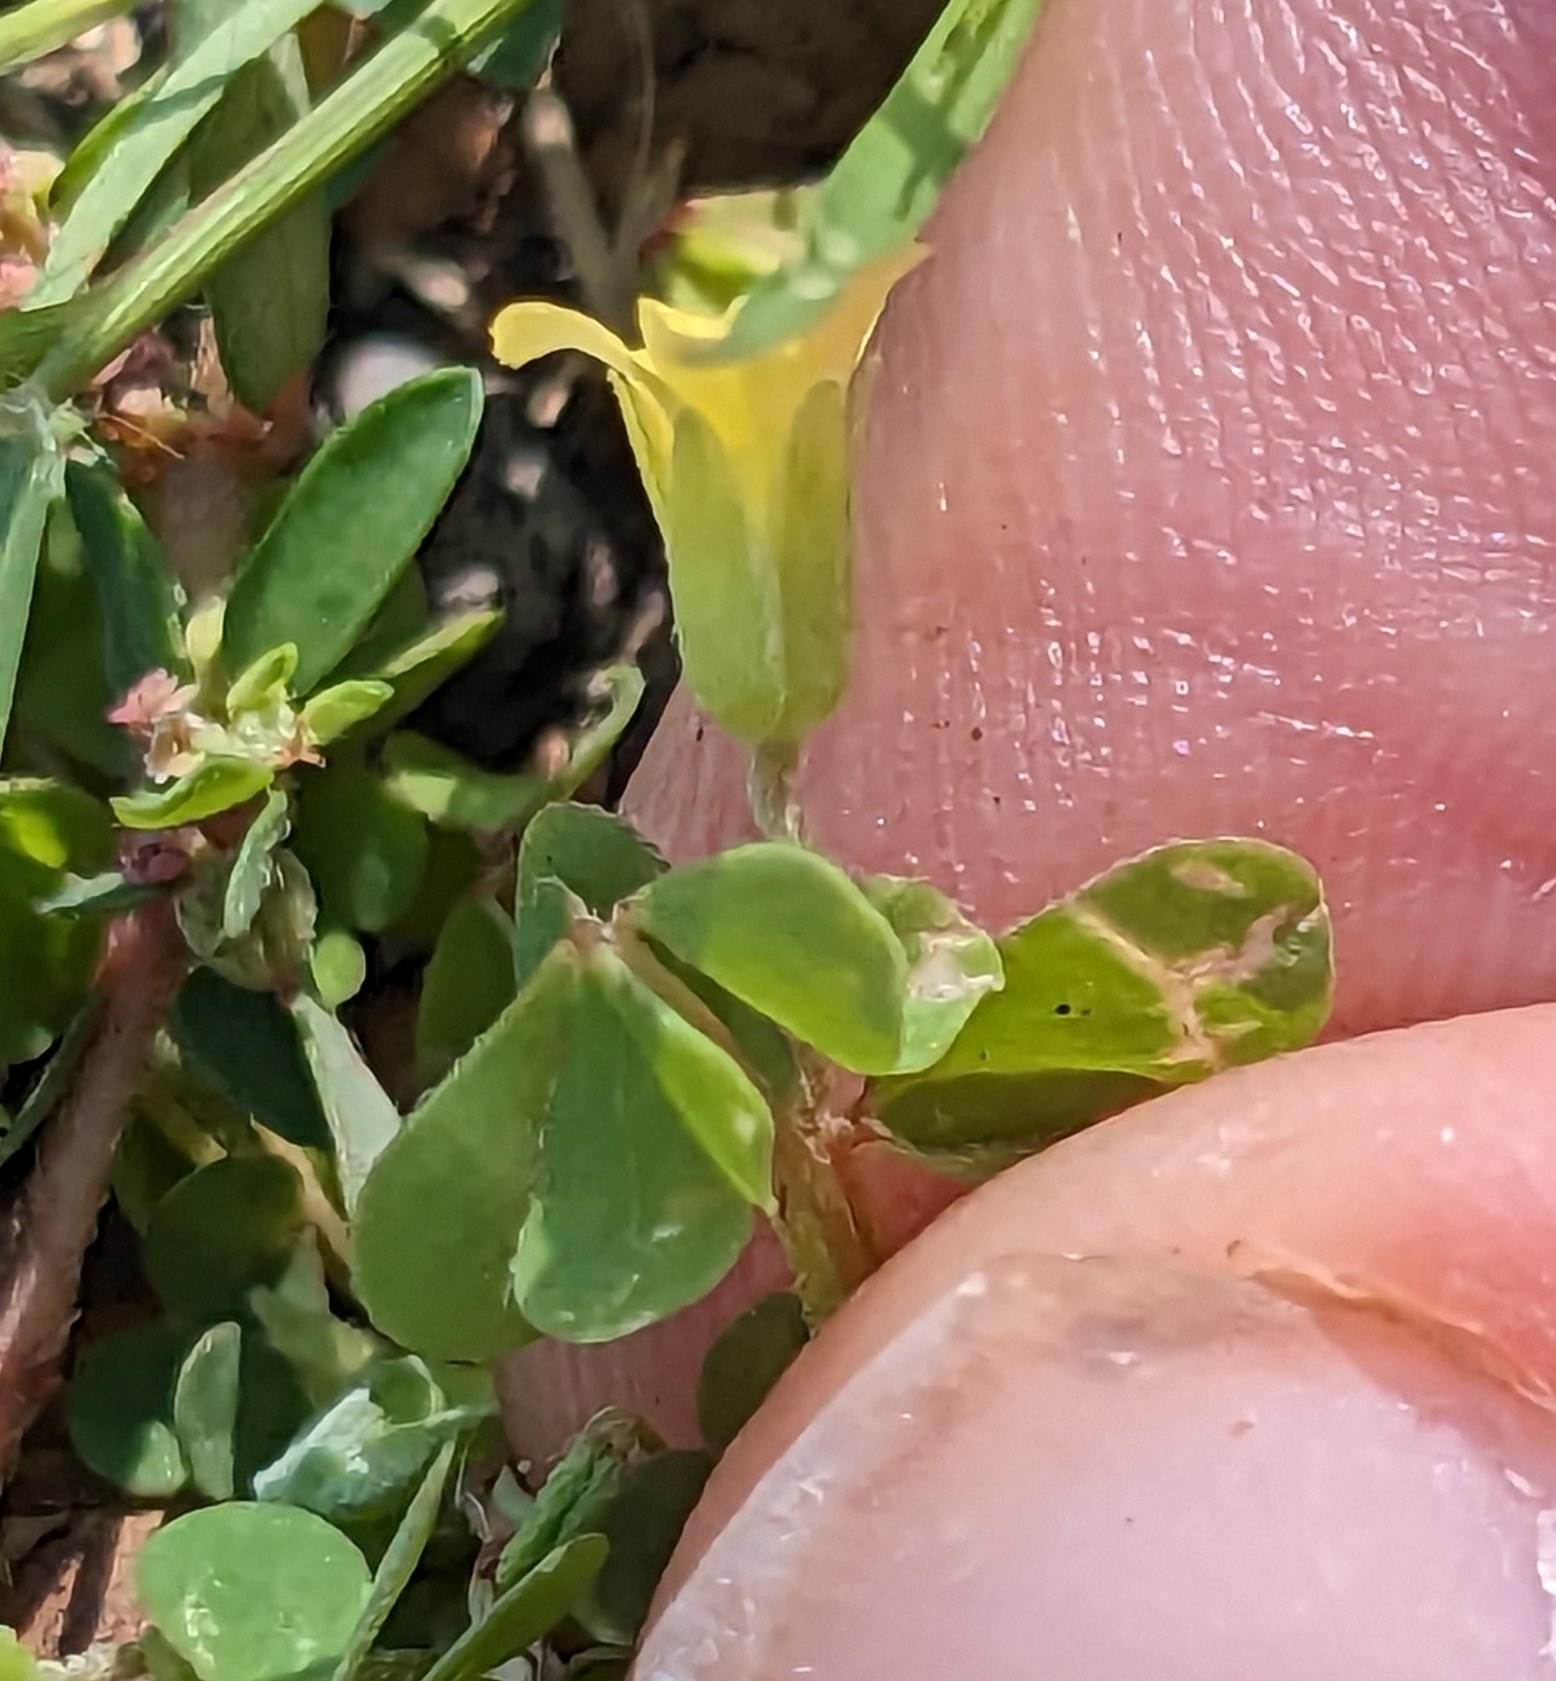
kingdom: Plantae
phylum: Tracheophyta
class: Magnoliopsida
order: Oxalidales
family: Oxalidaceae
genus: Oxalis
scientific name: Oxalis dillenii
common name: Sussex yellow-sorrel
